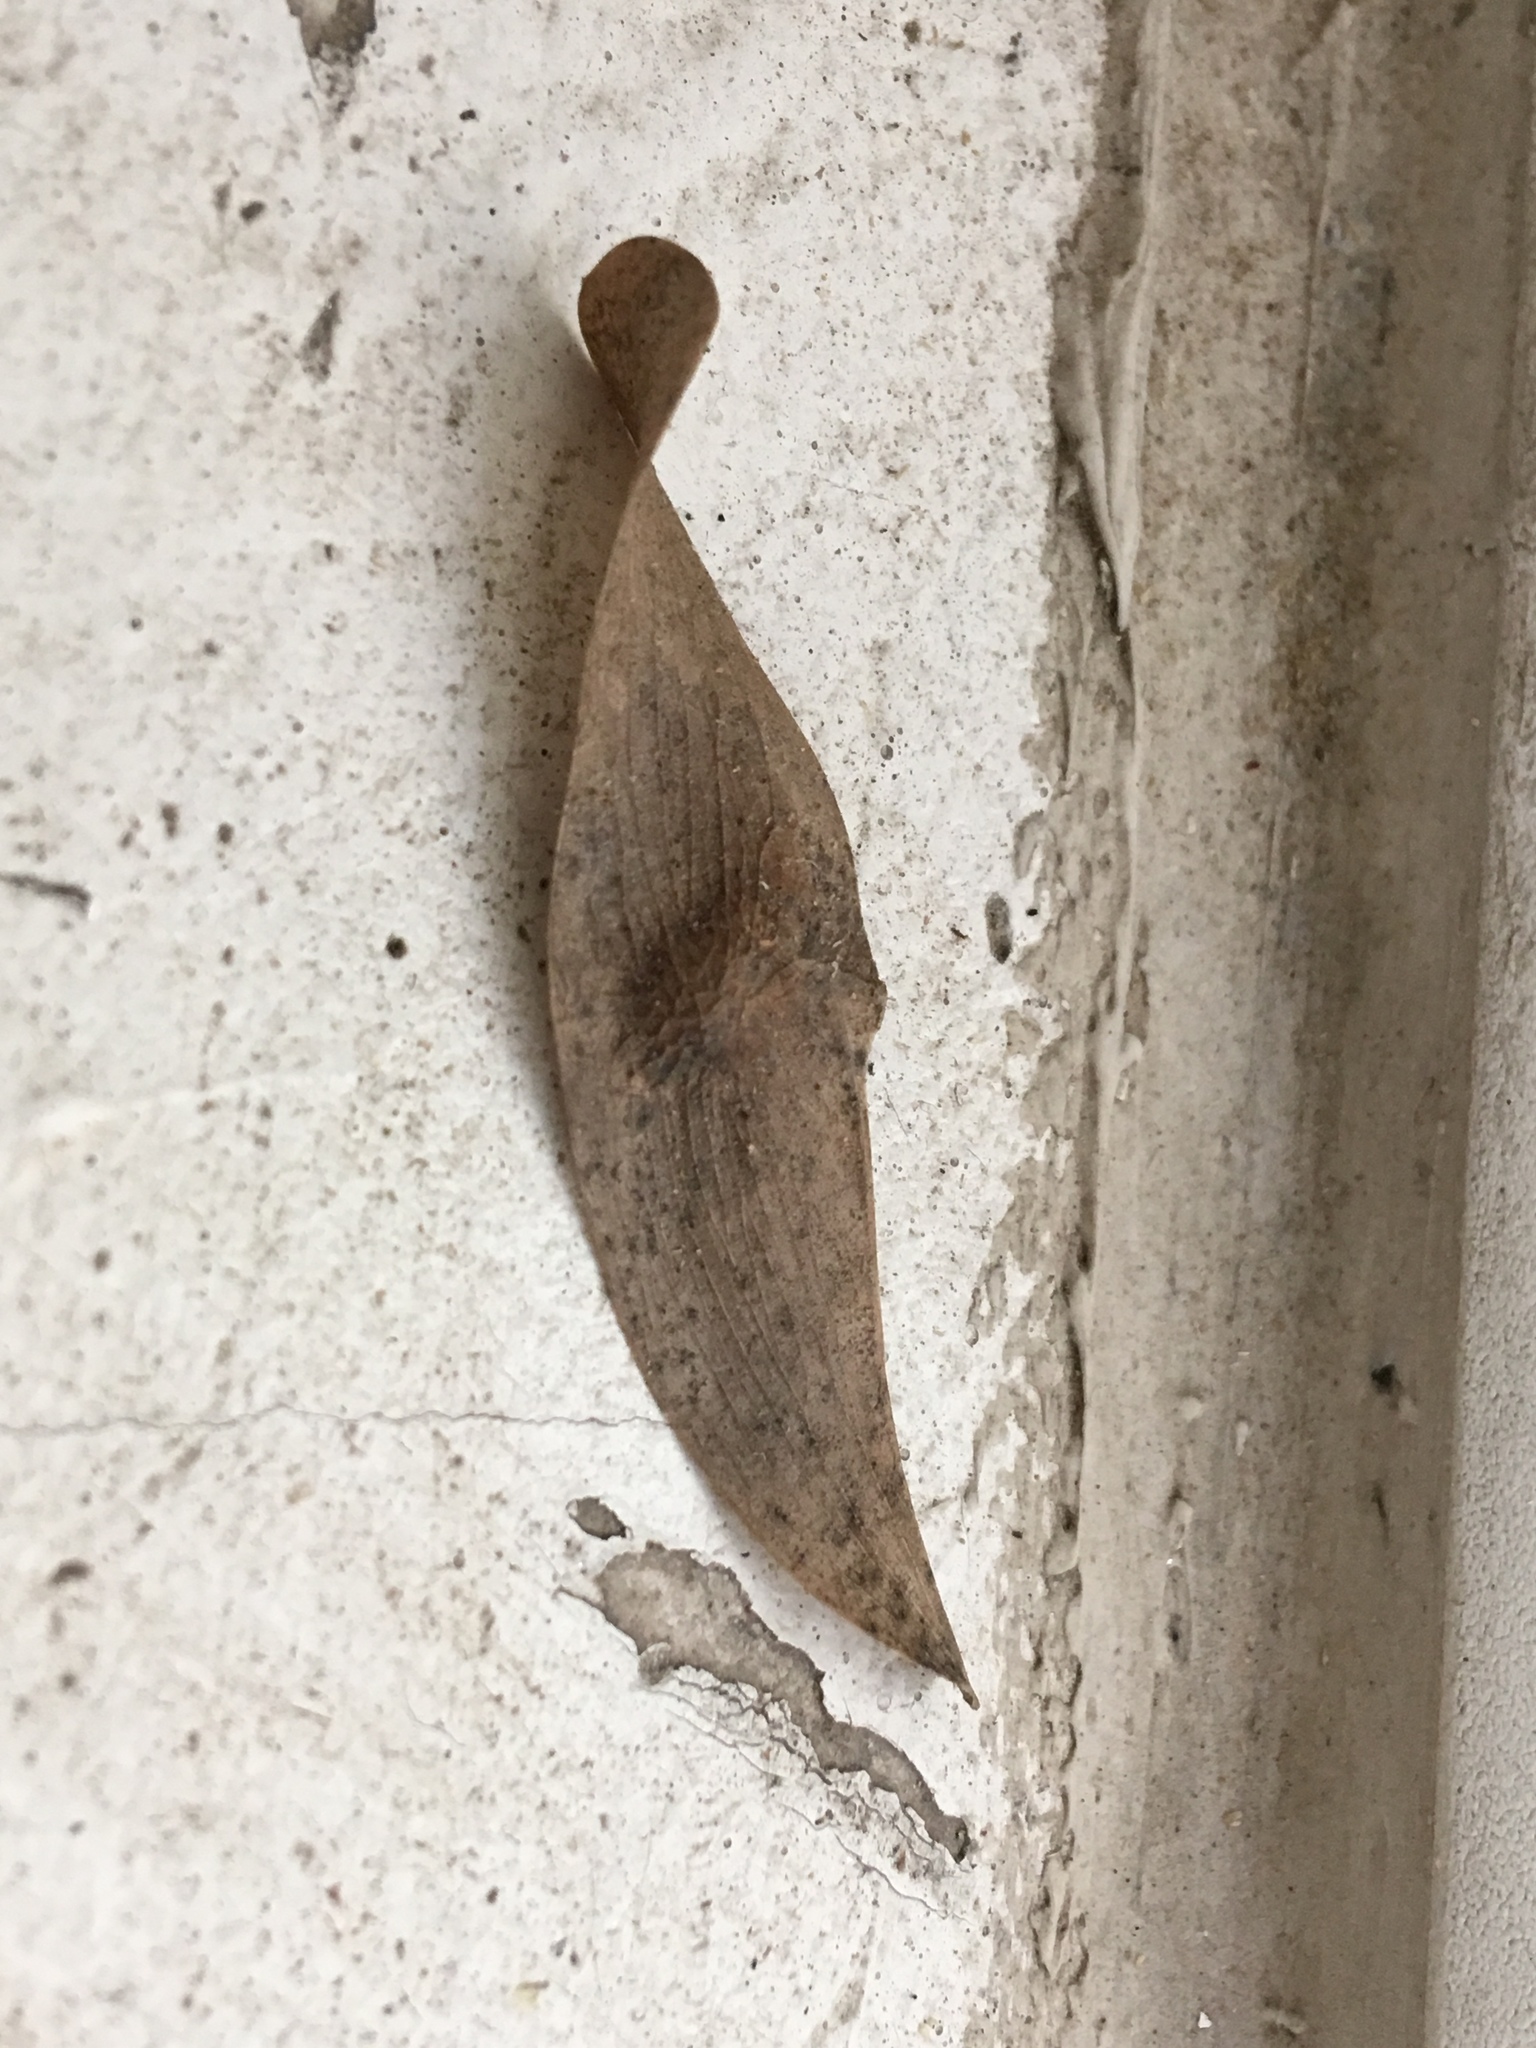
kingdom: Plantae
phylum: Tracheophyta
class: Magnoliopsida
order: Sapindales
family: Simaroubaceae
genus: Ailanthus
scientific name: Ailanthus altissima
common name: Tree-of-heaven
